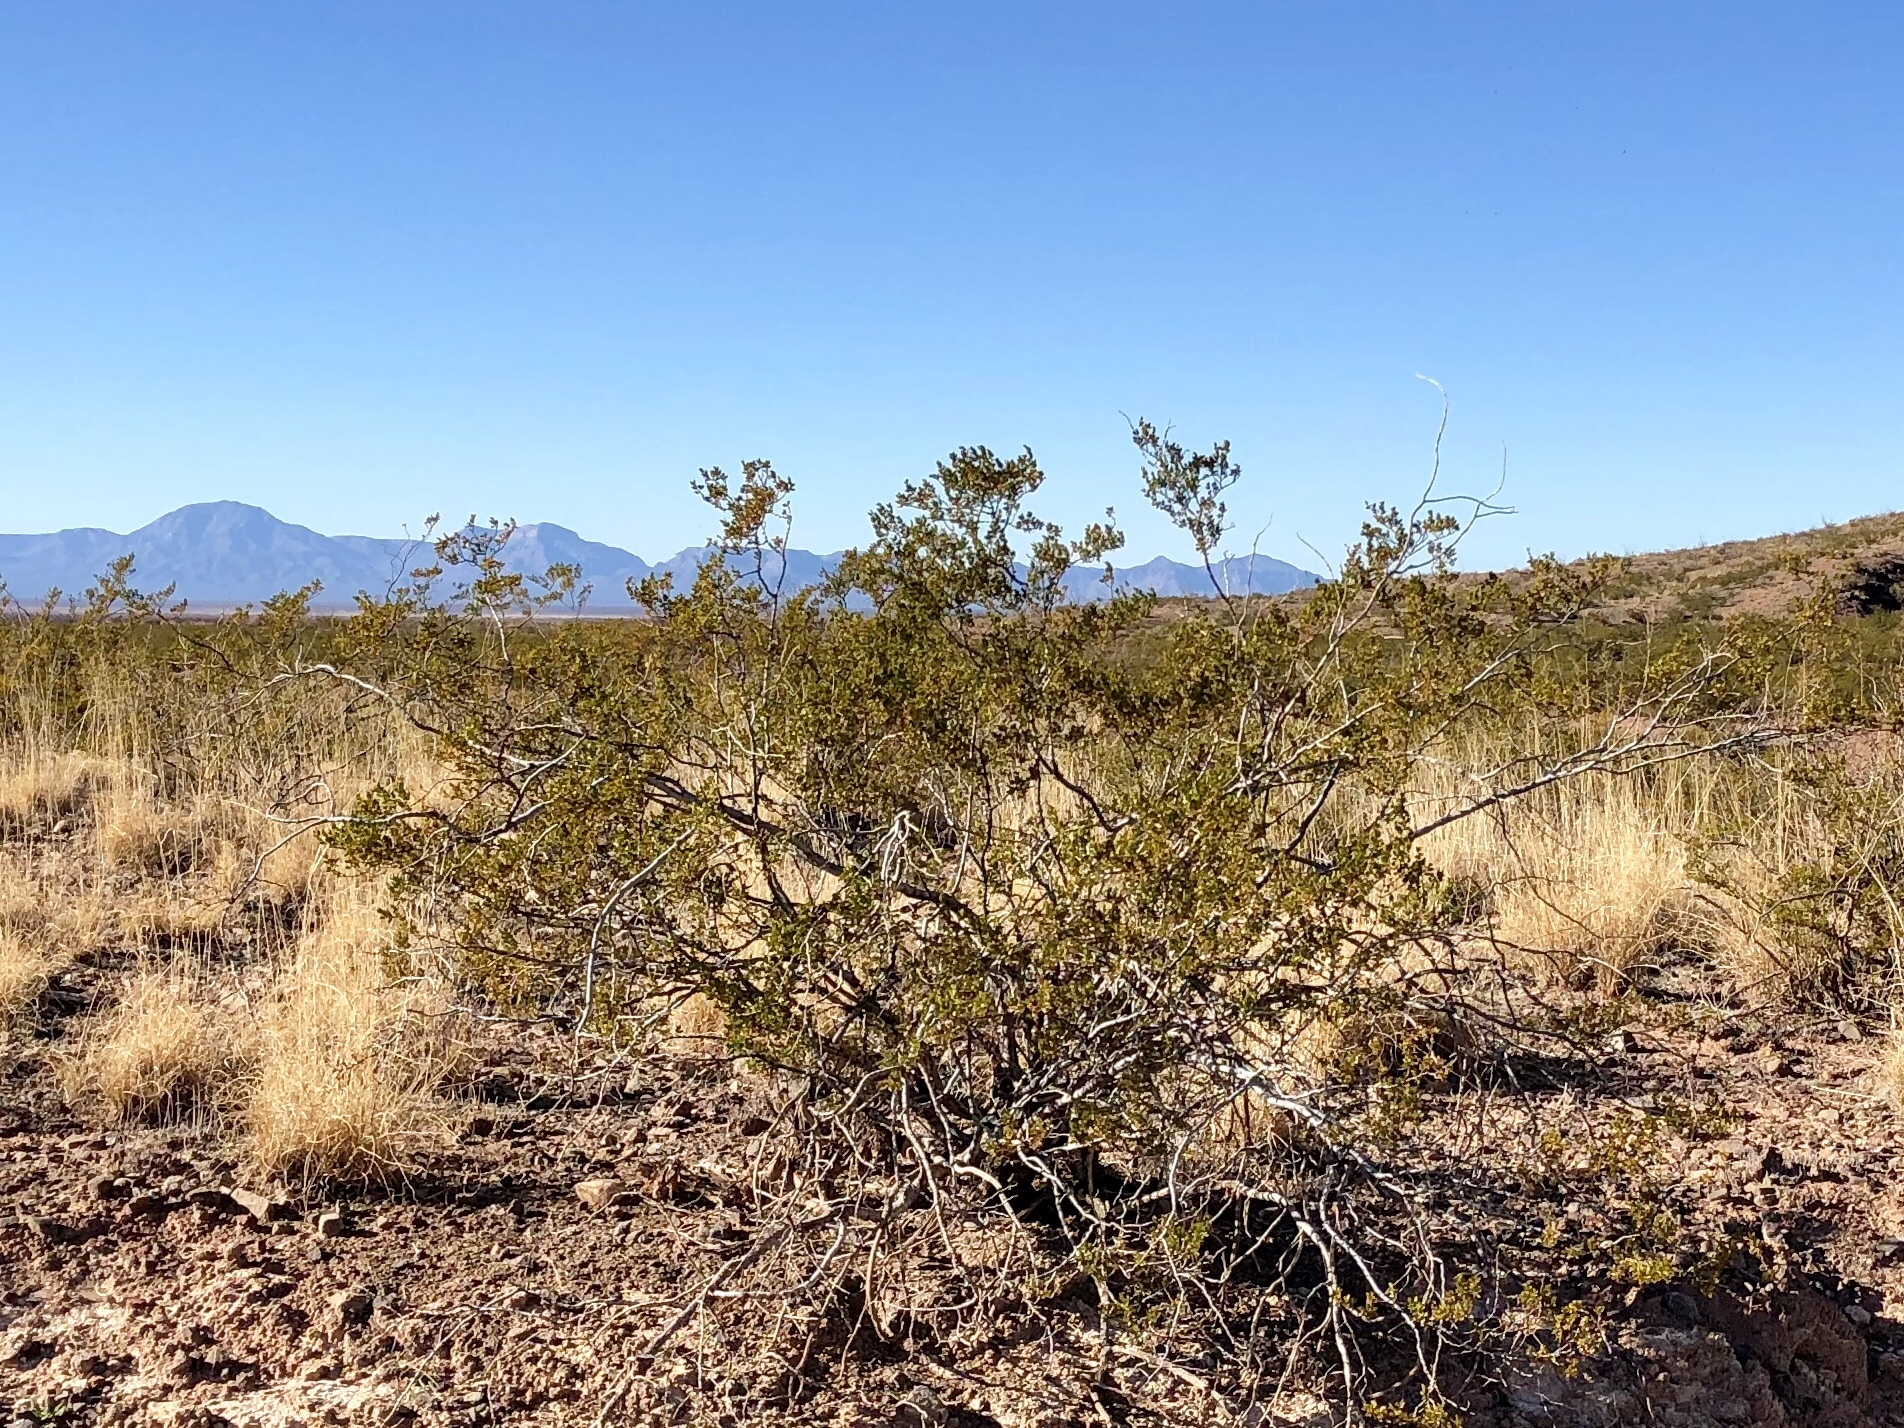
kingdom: Plantae
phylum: Tracheophyta
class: Magnoliopsida
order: Zygophyllales
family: Zygophyllaceae
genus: Larrea
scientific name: Larrea tridentata
